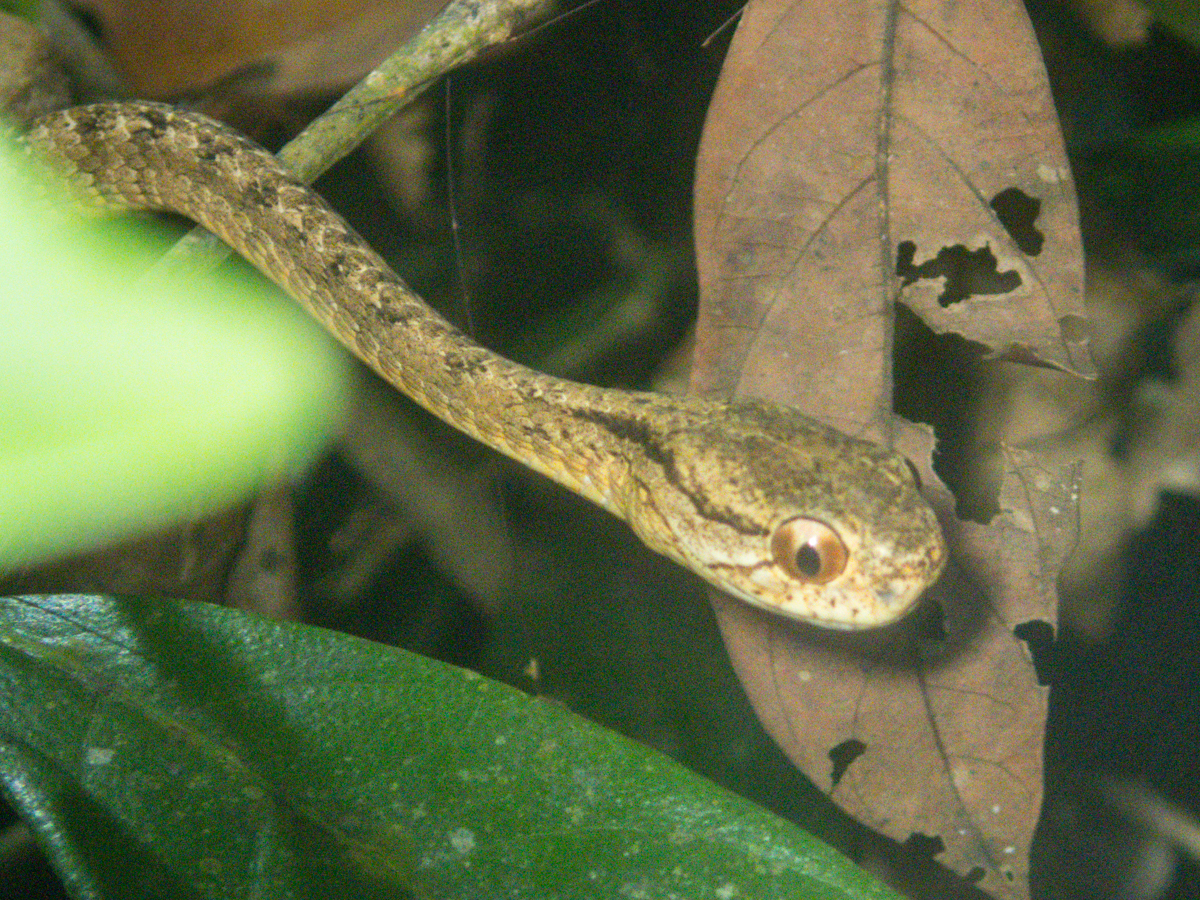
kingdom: Animalia
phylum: Chordata
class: Squamata
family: Pareidae
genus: Pareas
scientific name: Pareas carinatus
